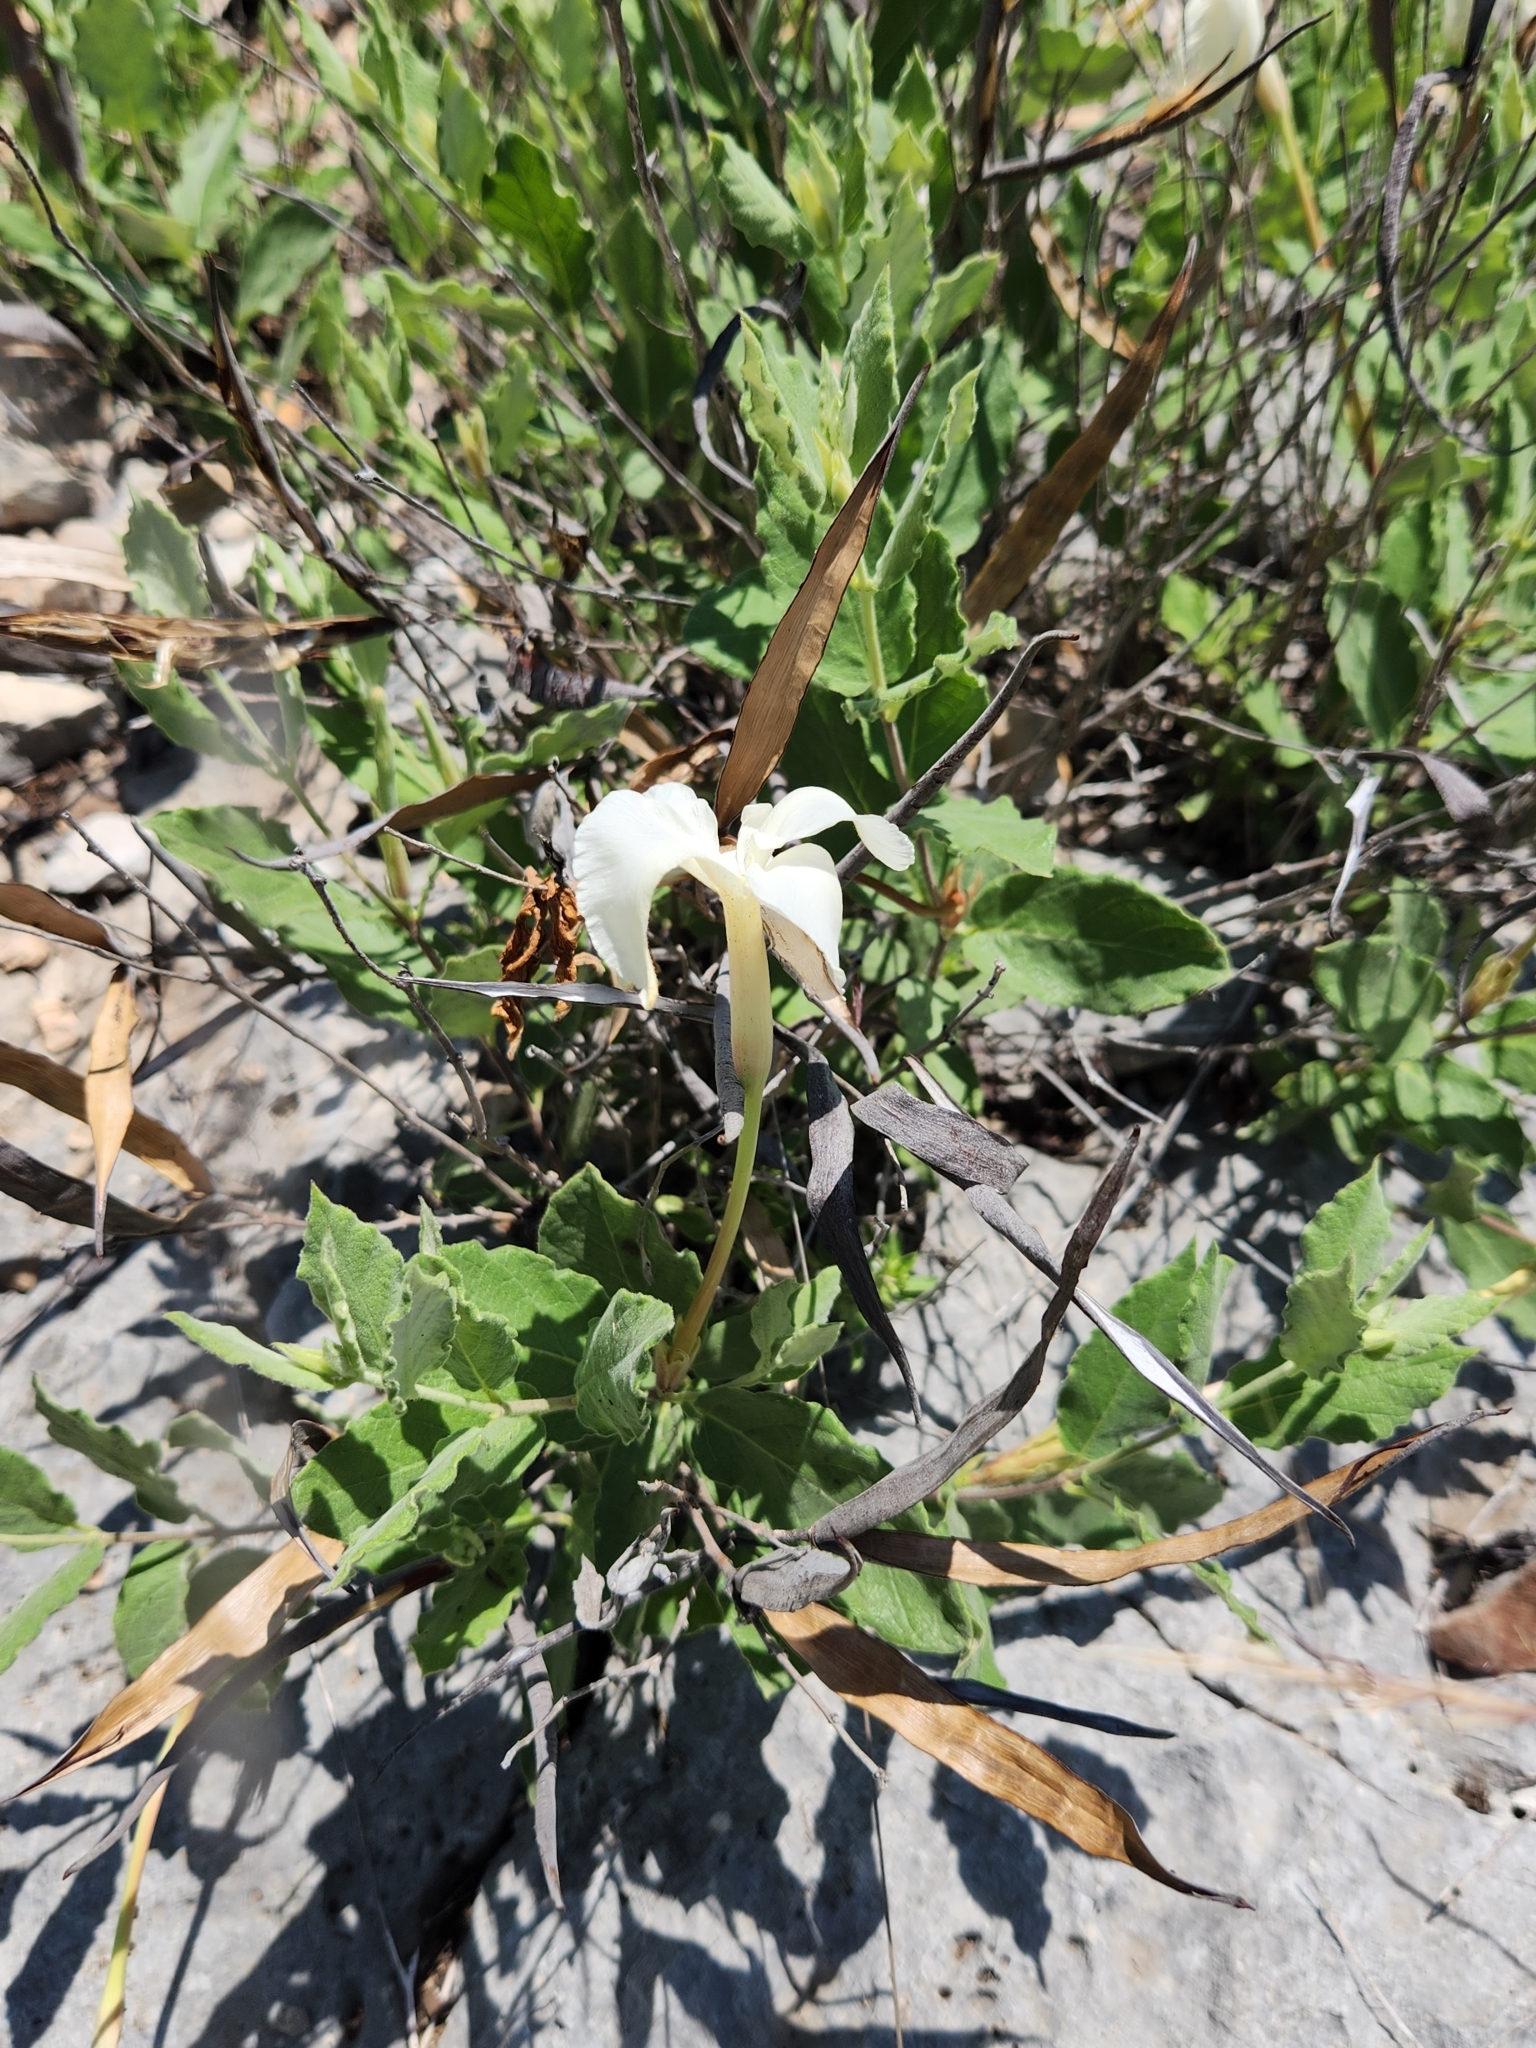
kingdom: Plantae
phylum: Tracheophyta
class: Magnoliopsida
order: Gentianales
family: Apocynaceae
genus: Mandevilla
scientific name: Mandevilla macrosiphon
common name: Plateau rocktrumpet
